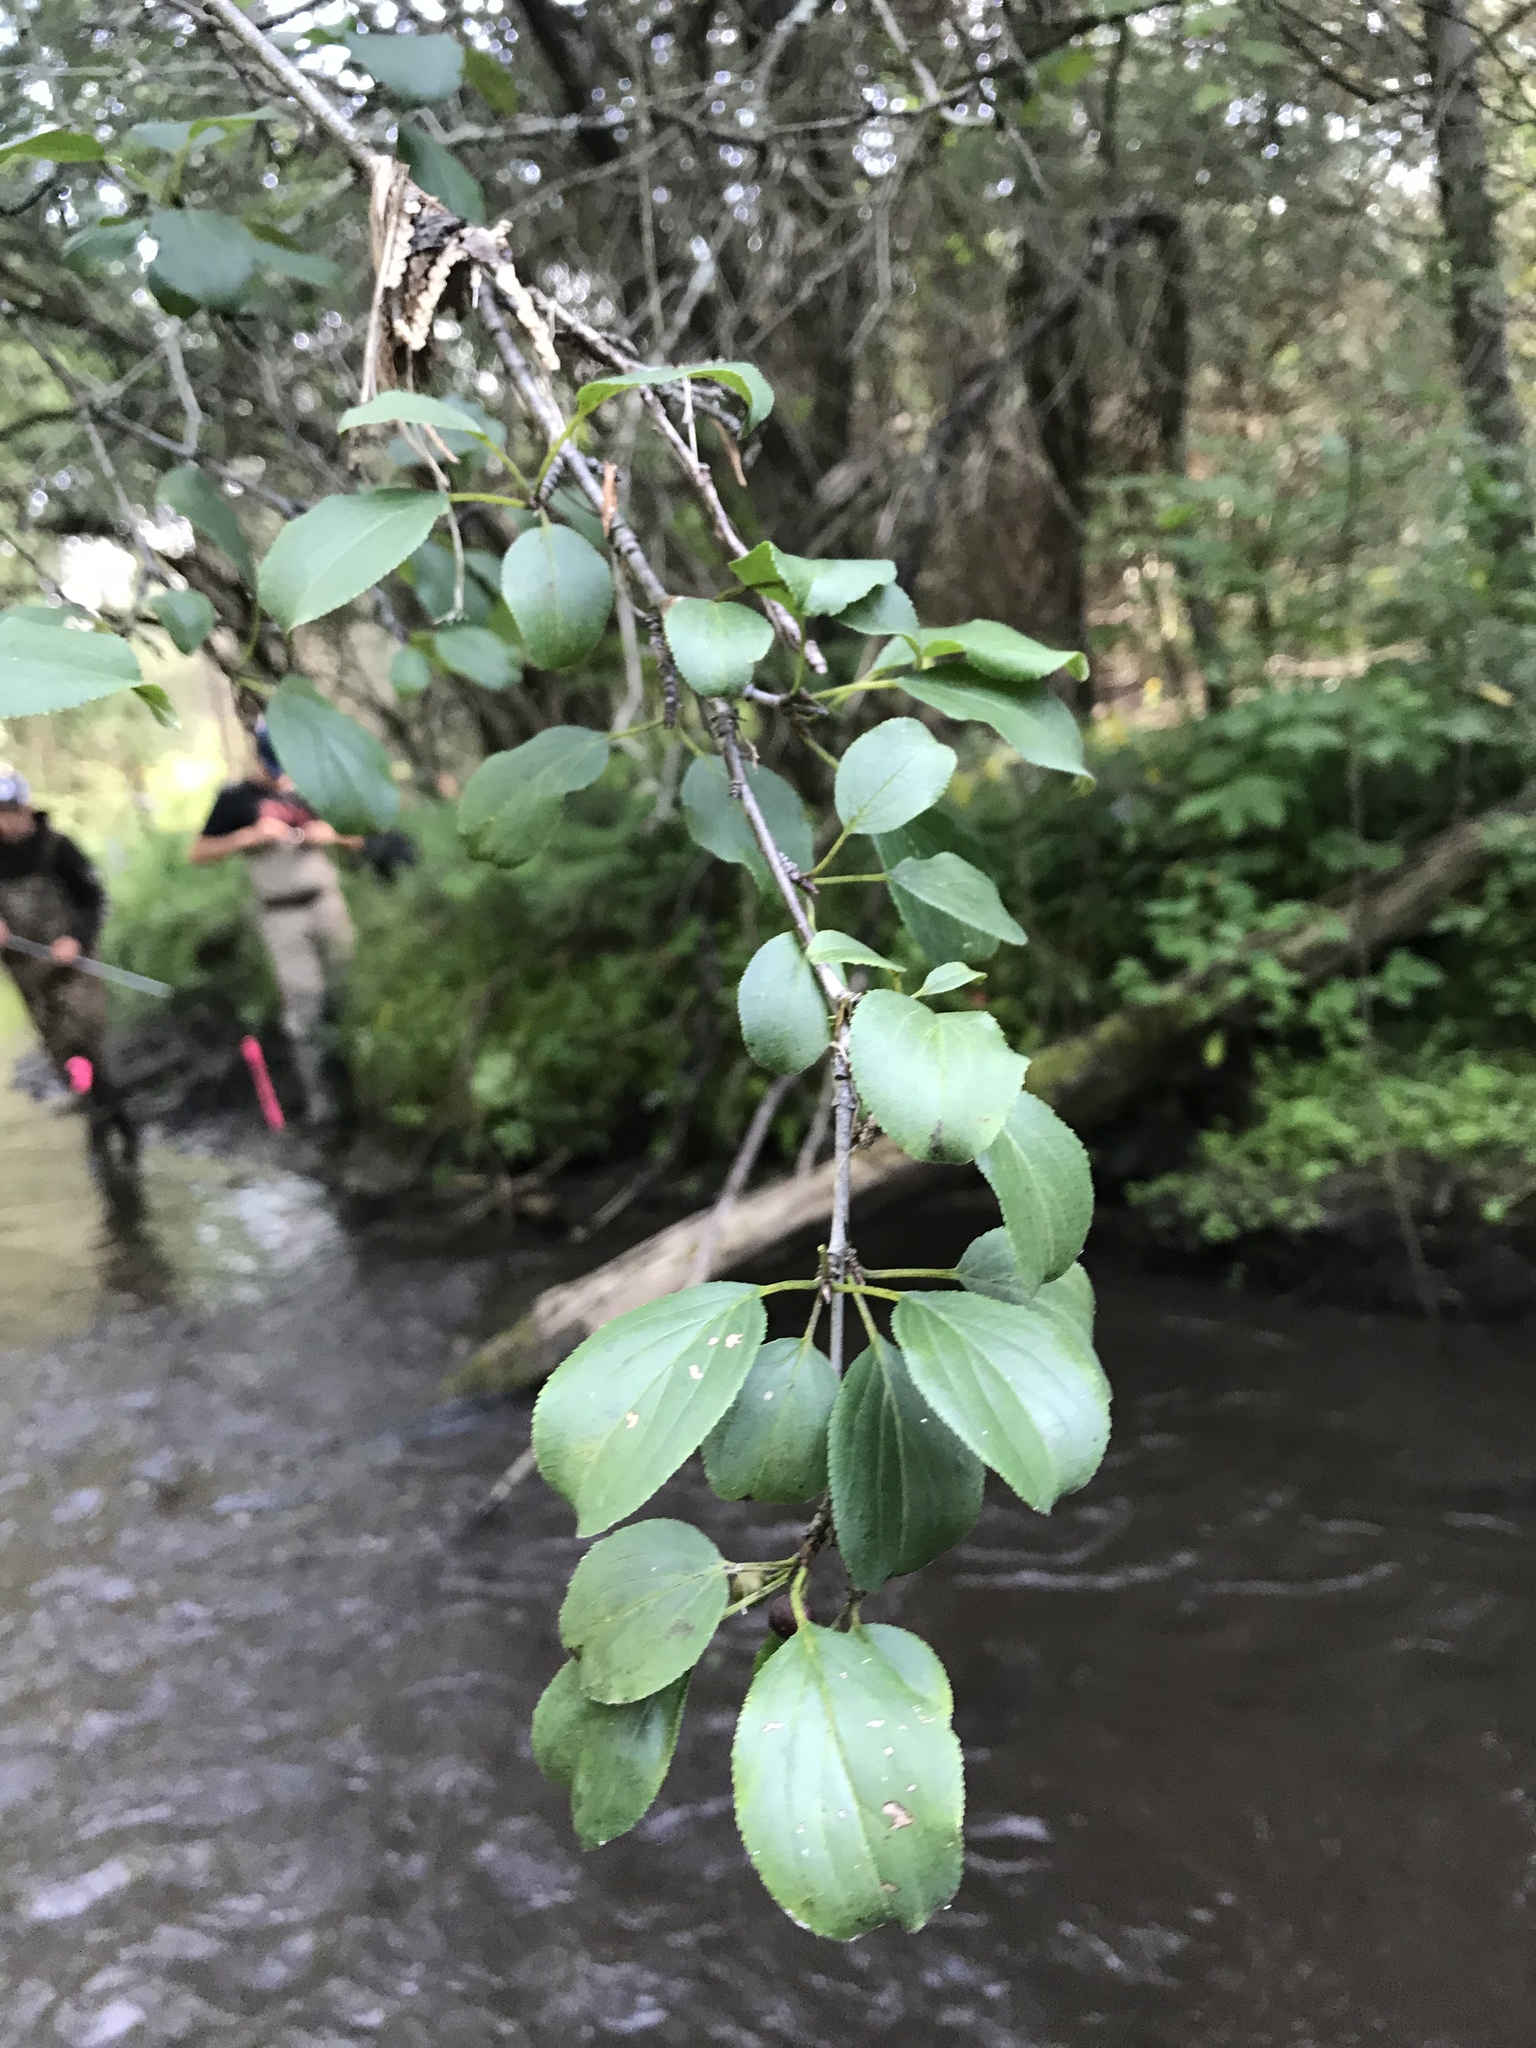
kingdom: Plantae
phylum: Tracheophyta
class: Magnoliopsida
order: Rosales
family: Rhamnaceae
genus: Rhamnus
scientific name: Rhamnus cathartica
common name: Common buckthorn
